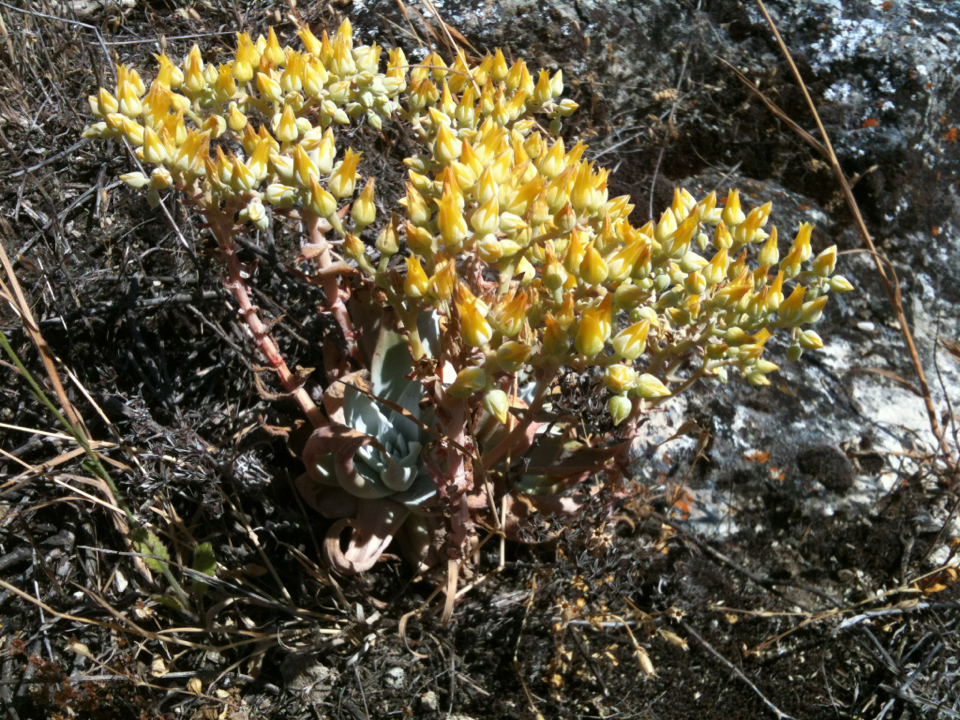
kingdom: Plantae
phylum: Tracheophyta
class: Magnoliopsida
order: Saxifragales
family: Crassulaceae
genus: Dudleya
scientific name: Dudleya cymosa
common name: Canyon dudleya
